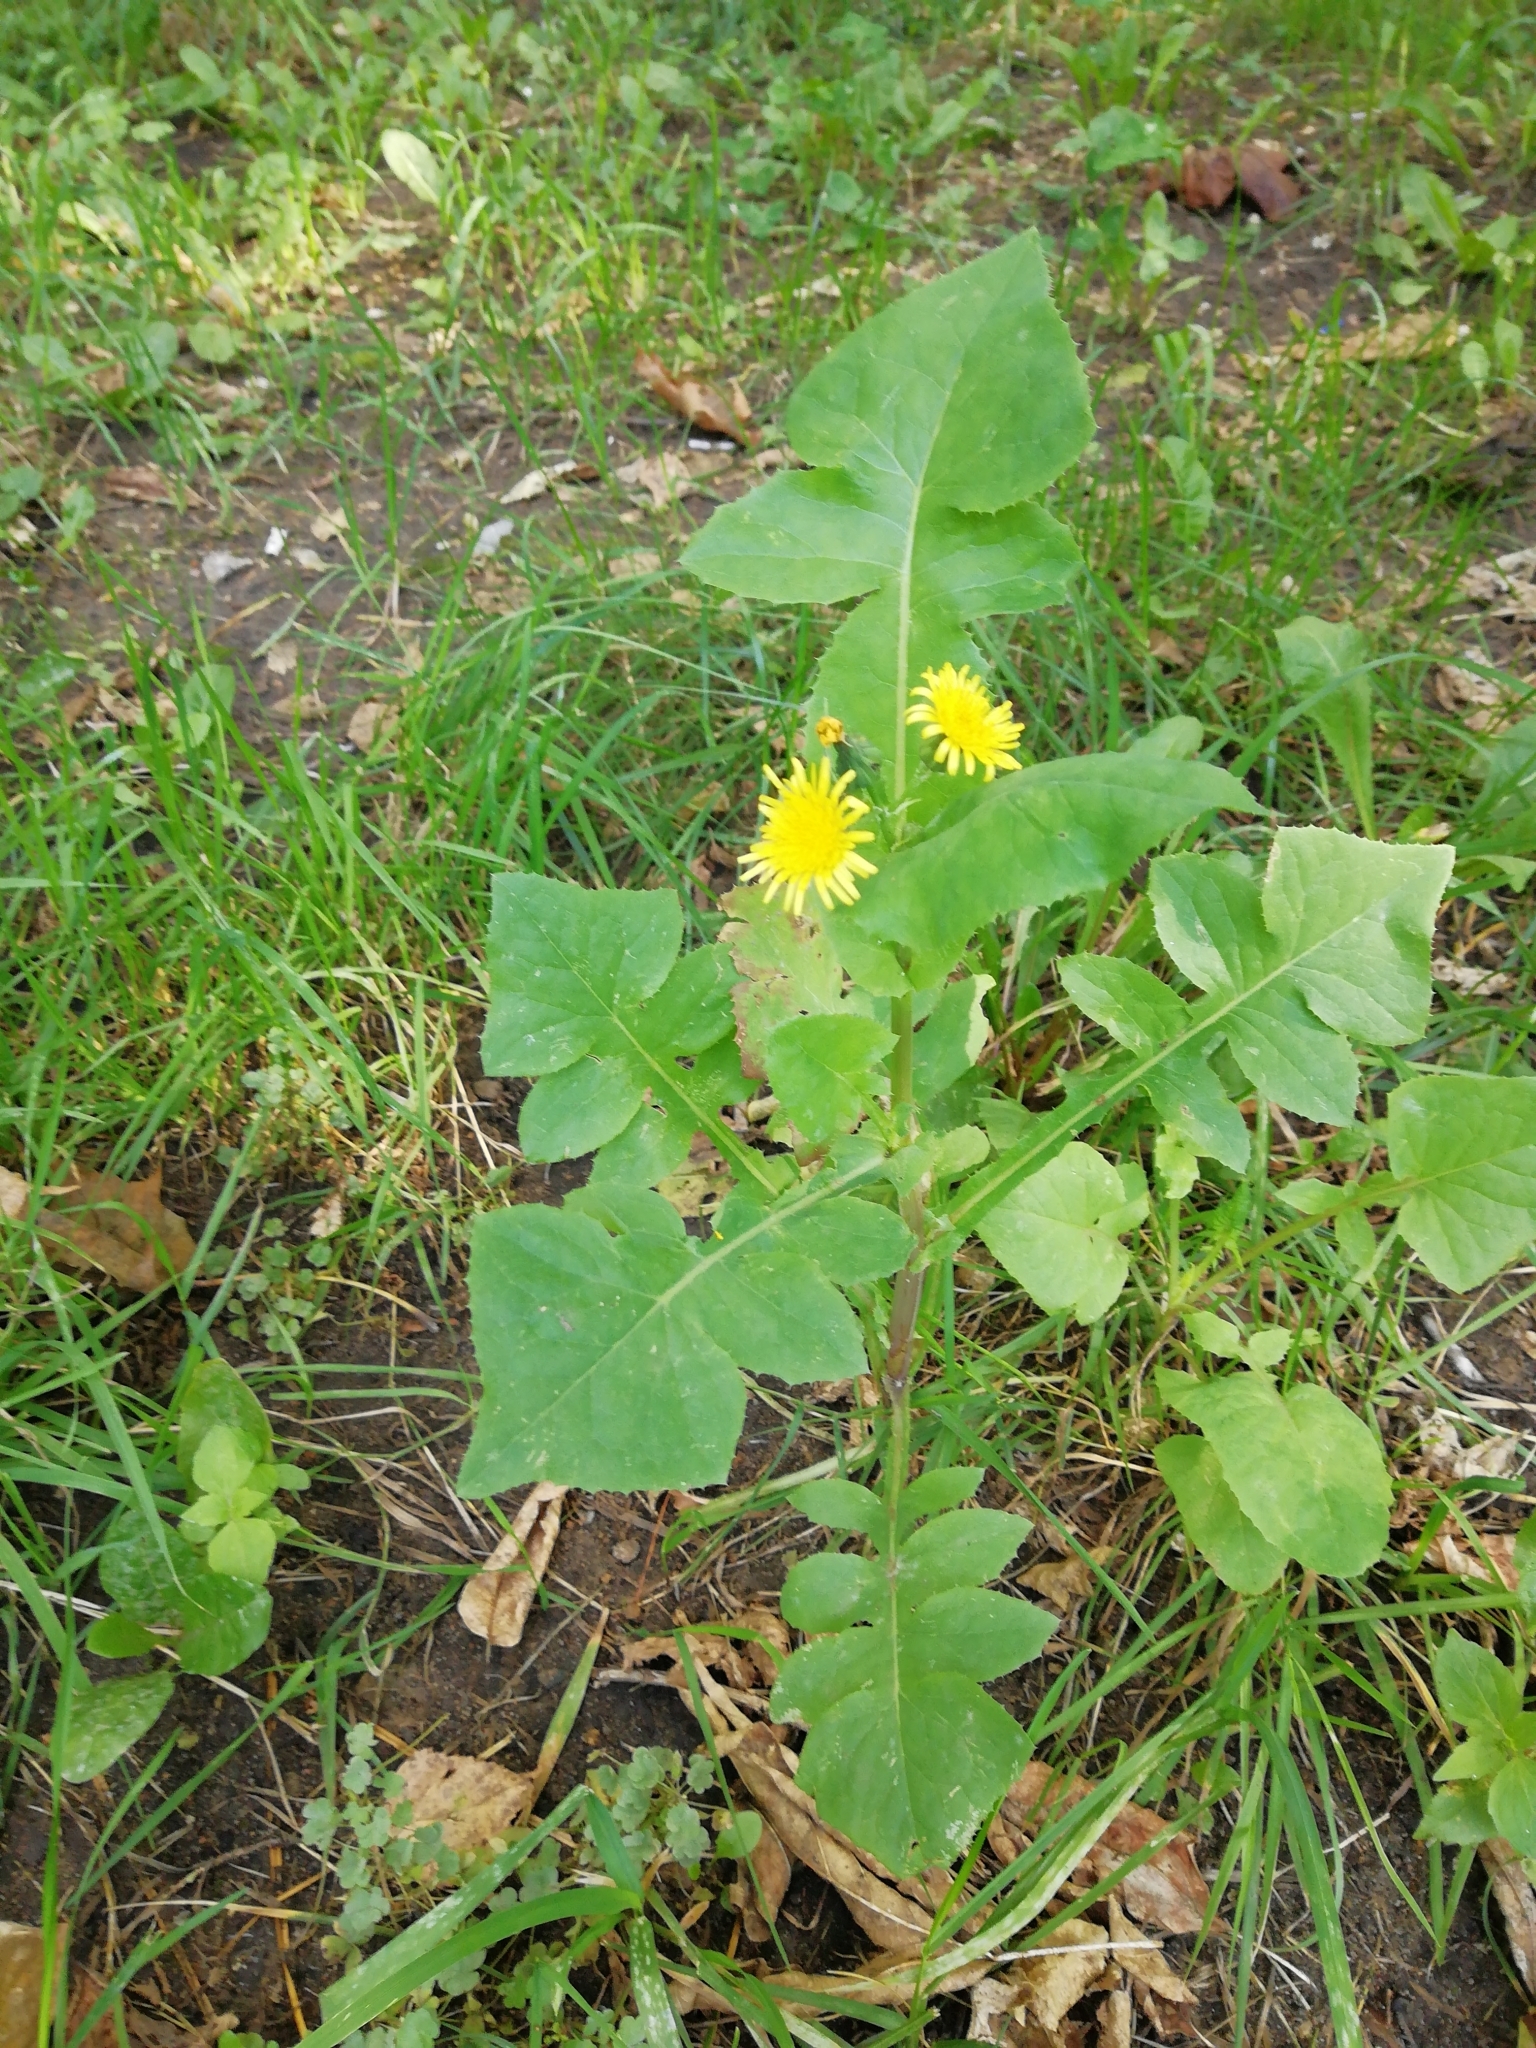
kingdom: Plantae
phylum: Tracheophyta
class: Magnoliopsida
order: Asterales
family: Asteraceae
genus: Sonchus
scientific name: Sonchus oleraceus
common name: Common sowthistle
